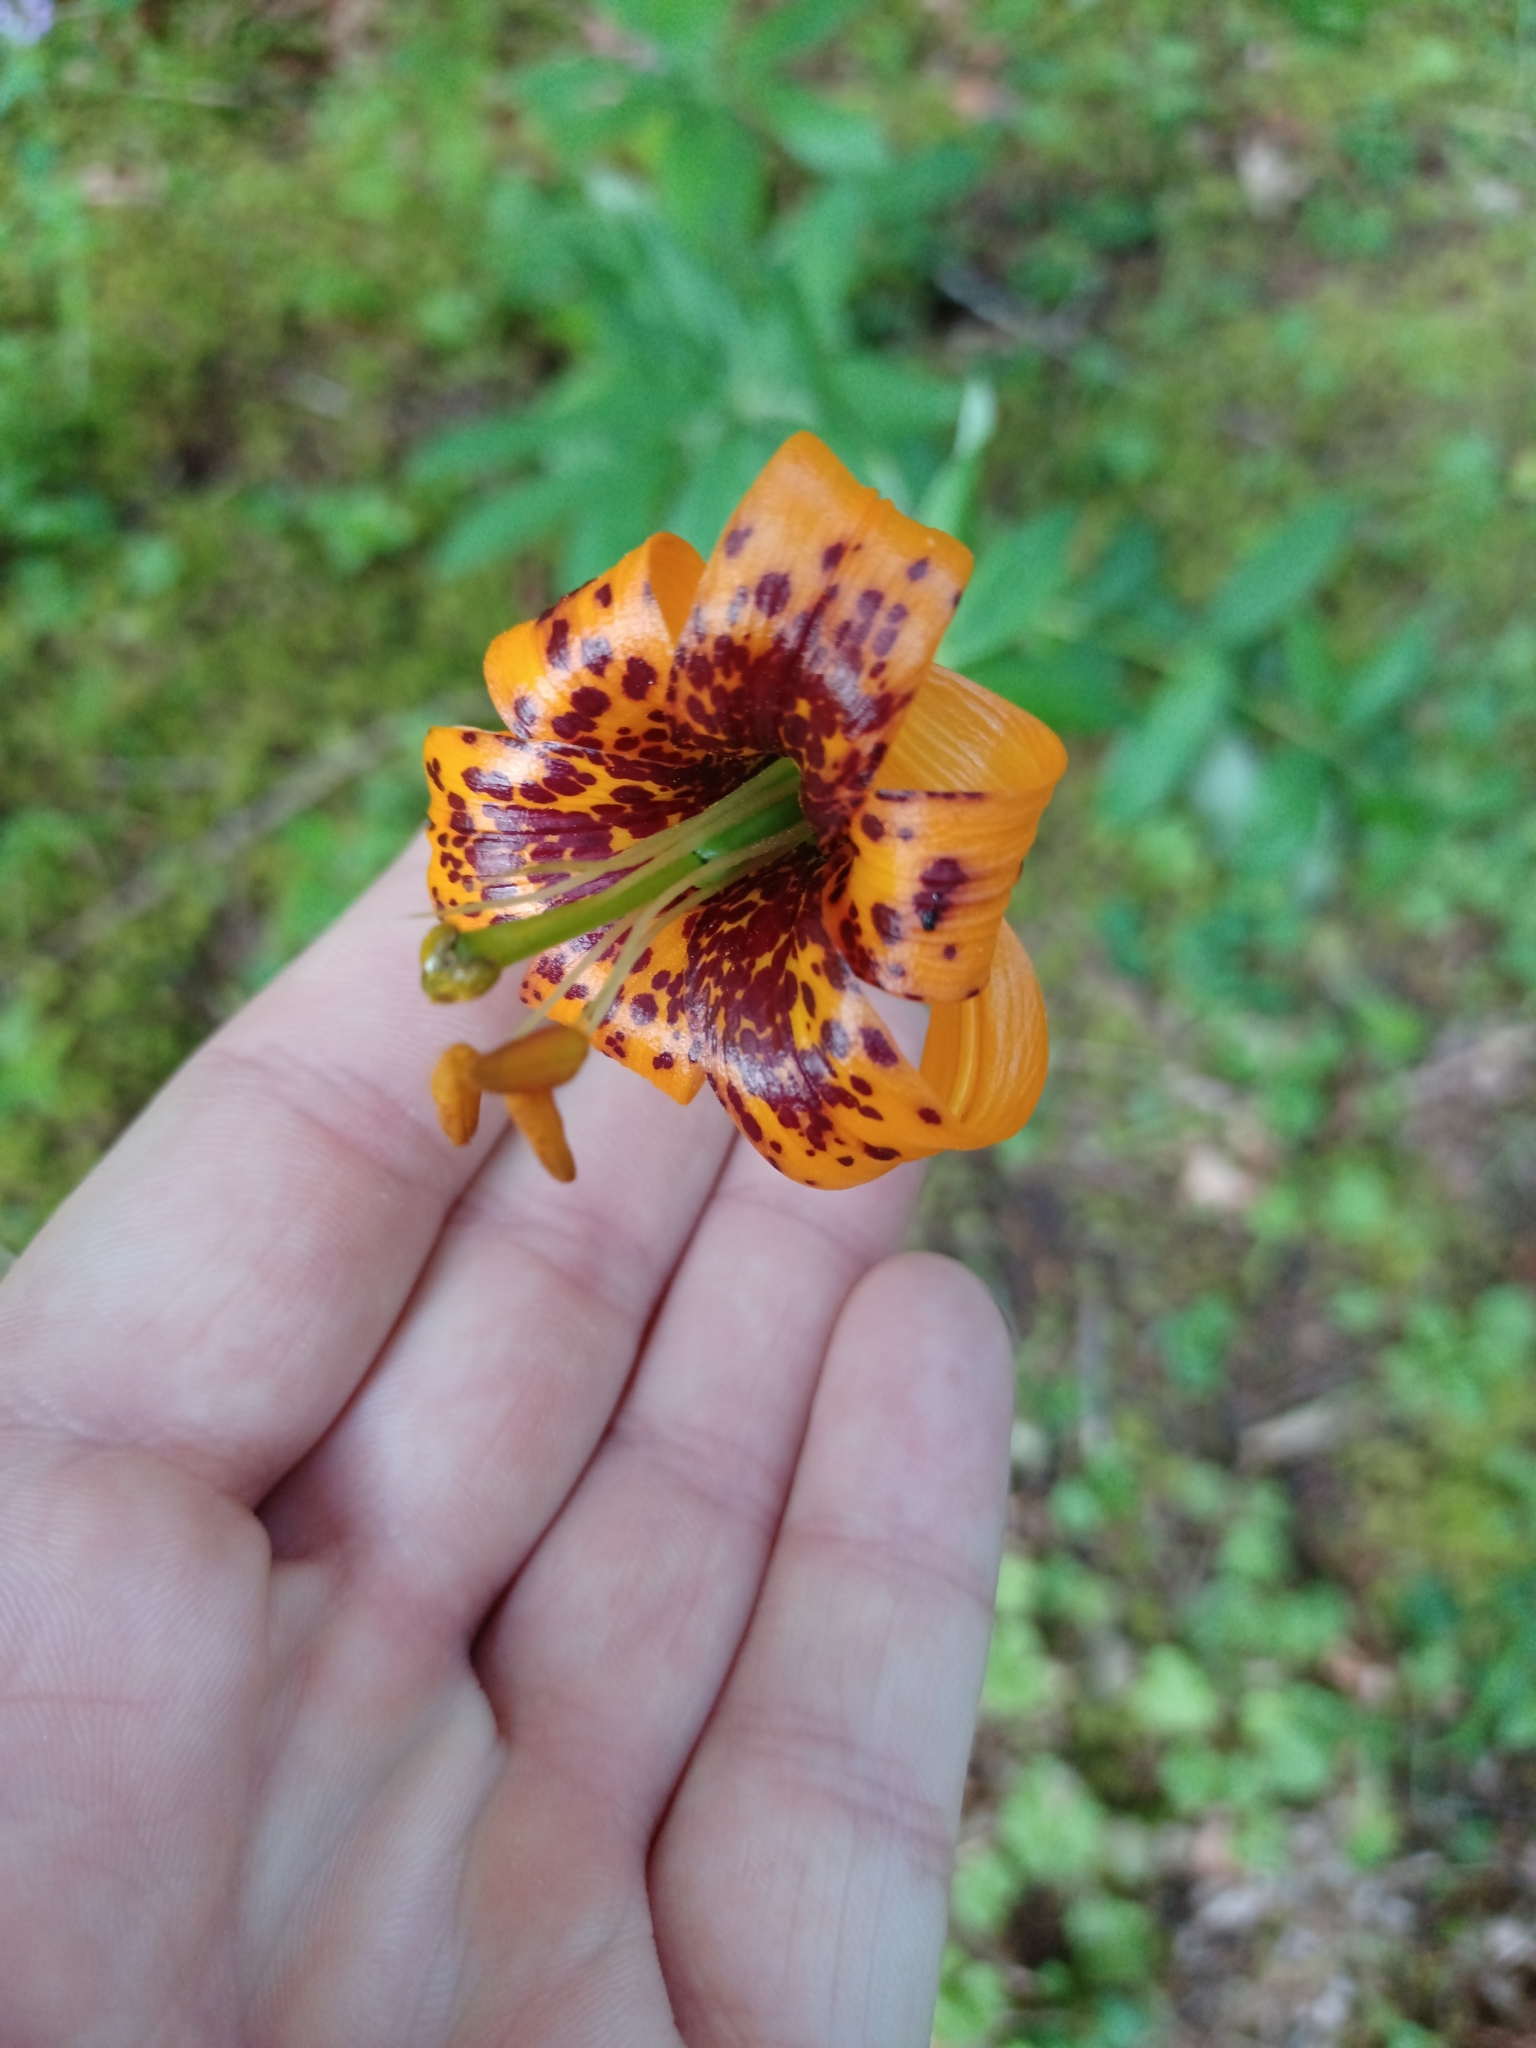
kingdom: Plantae
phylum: Tracheophyta
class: Liliopsida
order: Liliales
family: Liliaceae
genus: Lilium
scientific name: Lilium columbianum
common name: Columbia lily
